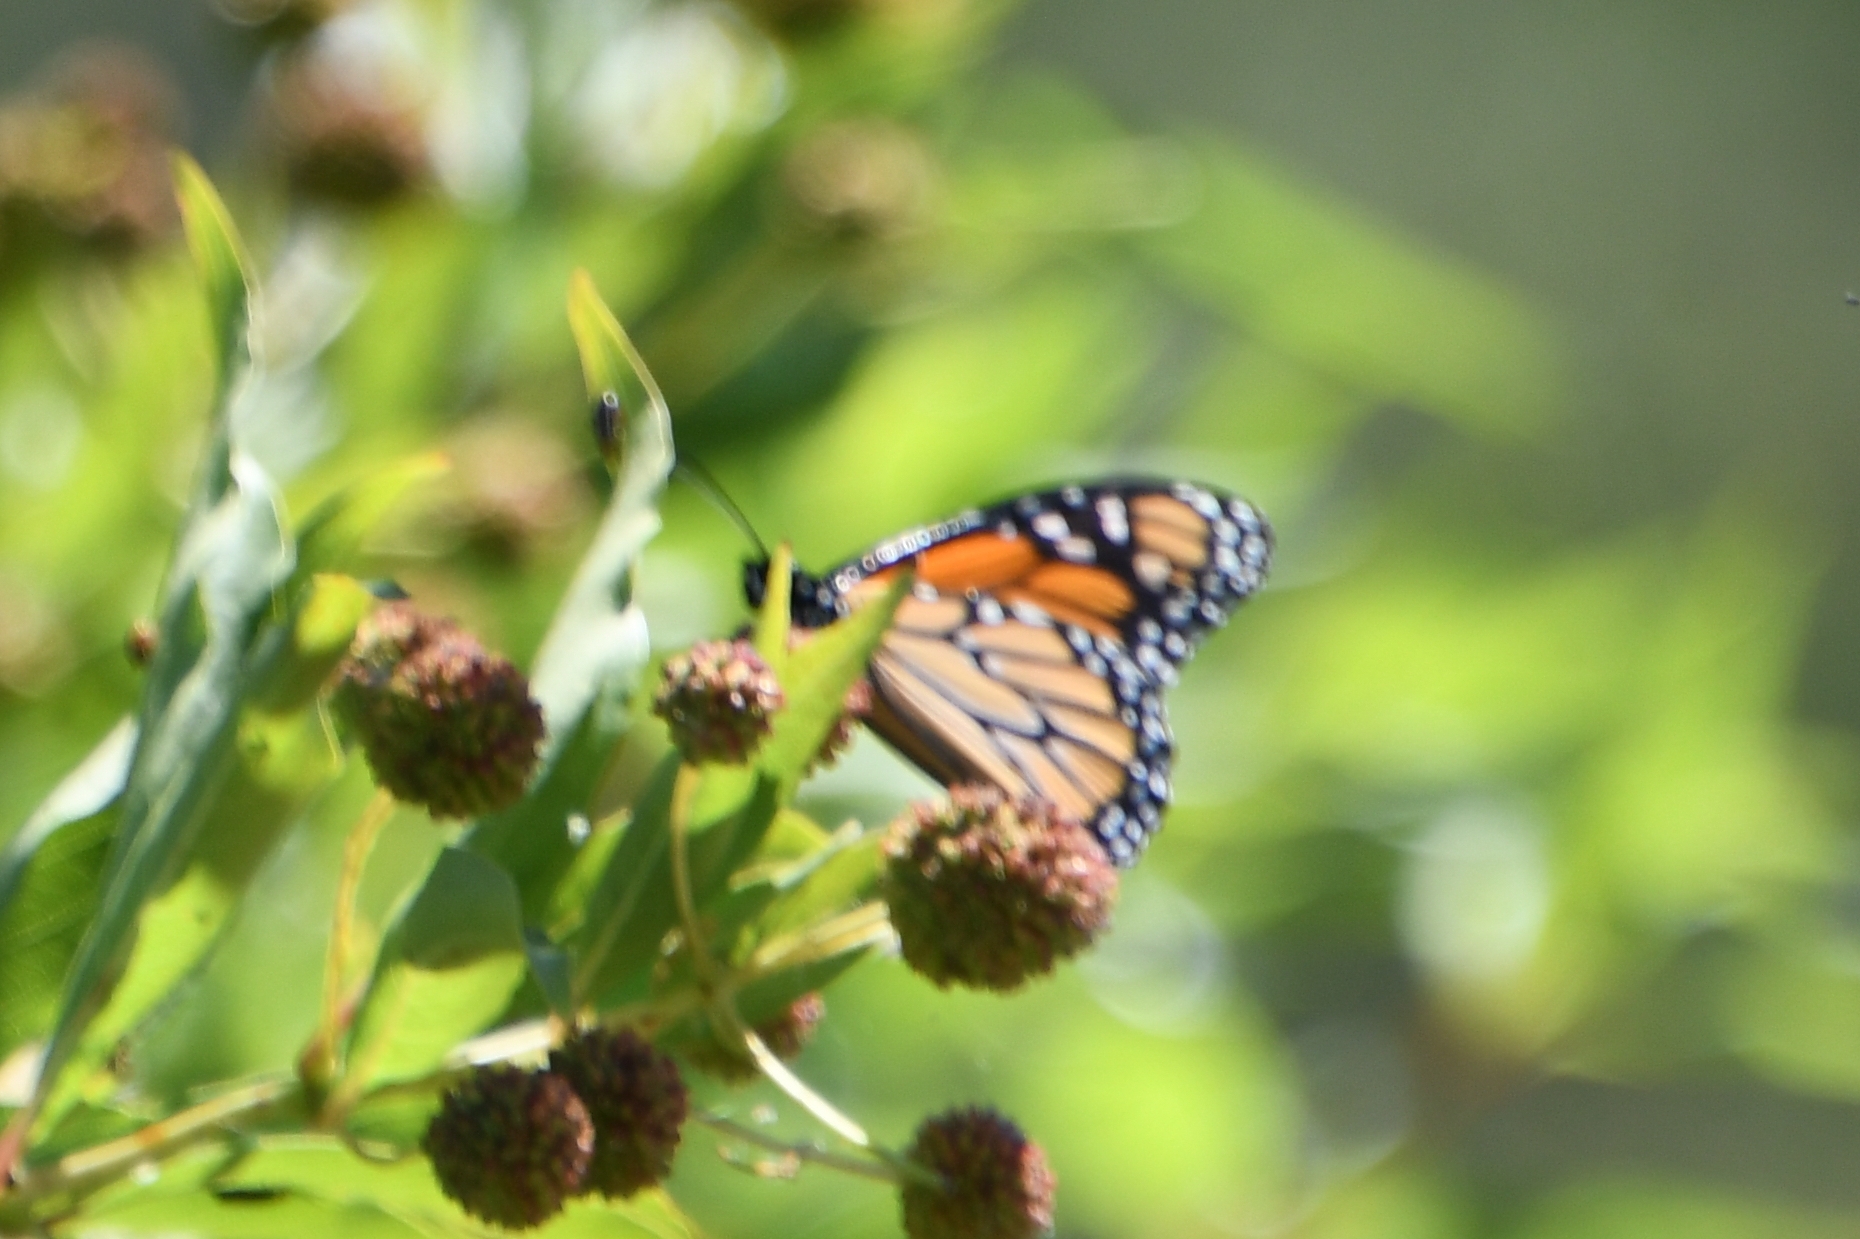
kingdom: Animalia
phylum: Arthropoda
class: Insecta
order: Lepidoptera
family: Nymphalidae
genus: Danaus
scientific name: Danaus plexippus
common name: Monarch
